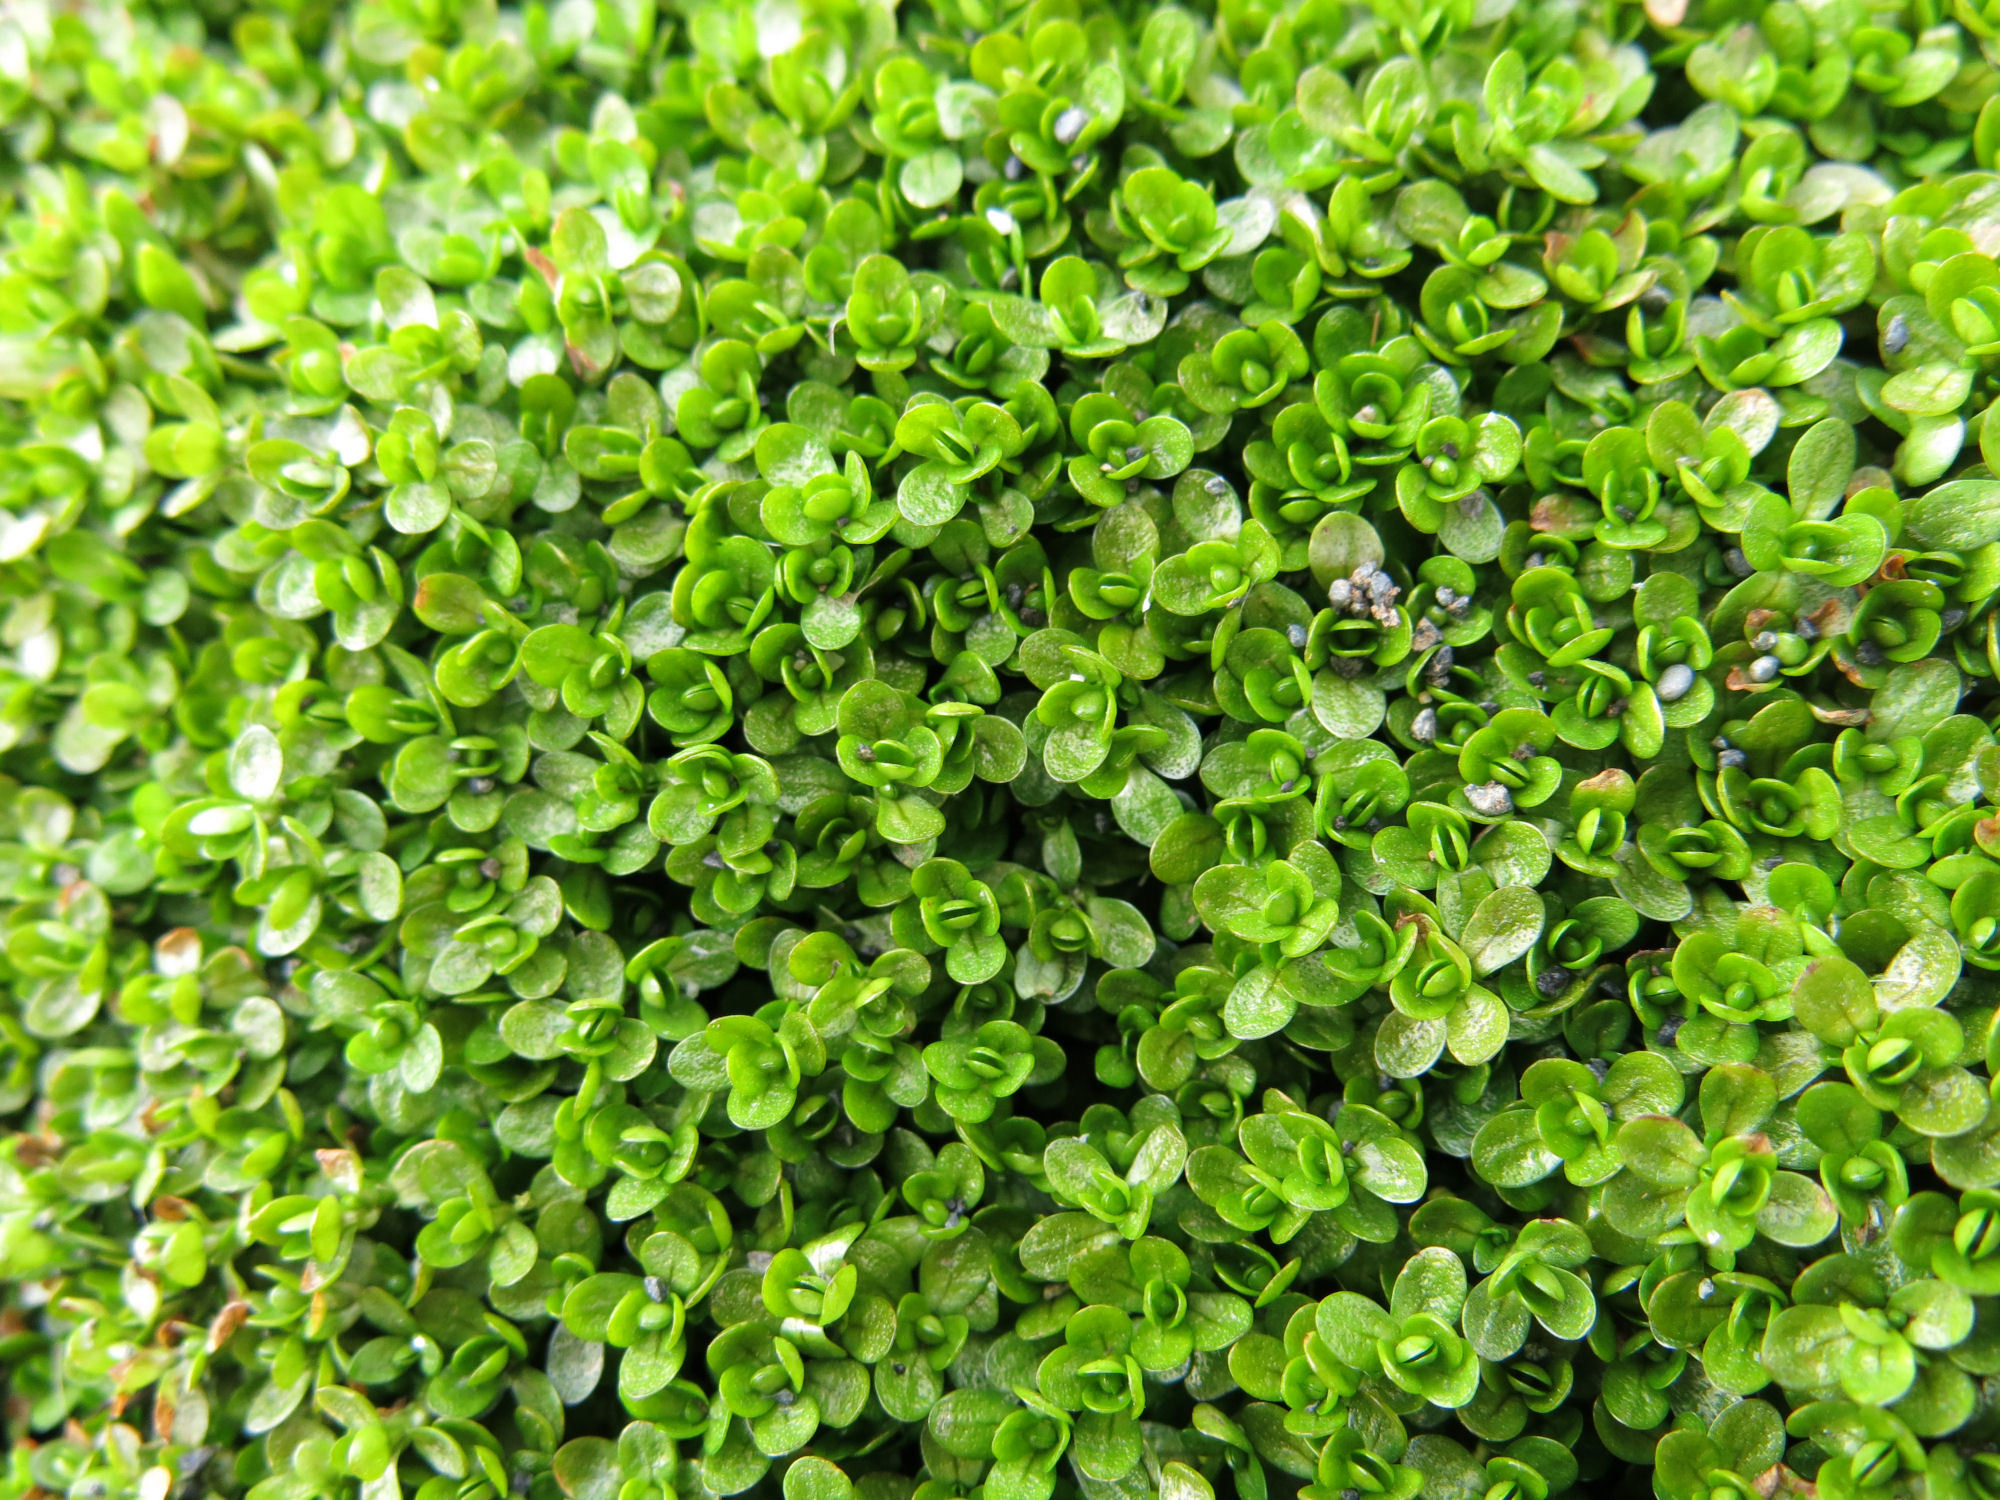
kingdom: Plantae
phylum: Tracheophyta
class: Magnoliopsida
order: Lamiales
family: Plantaginaceae
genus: Callitriche
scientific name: Callitriche antarctica
